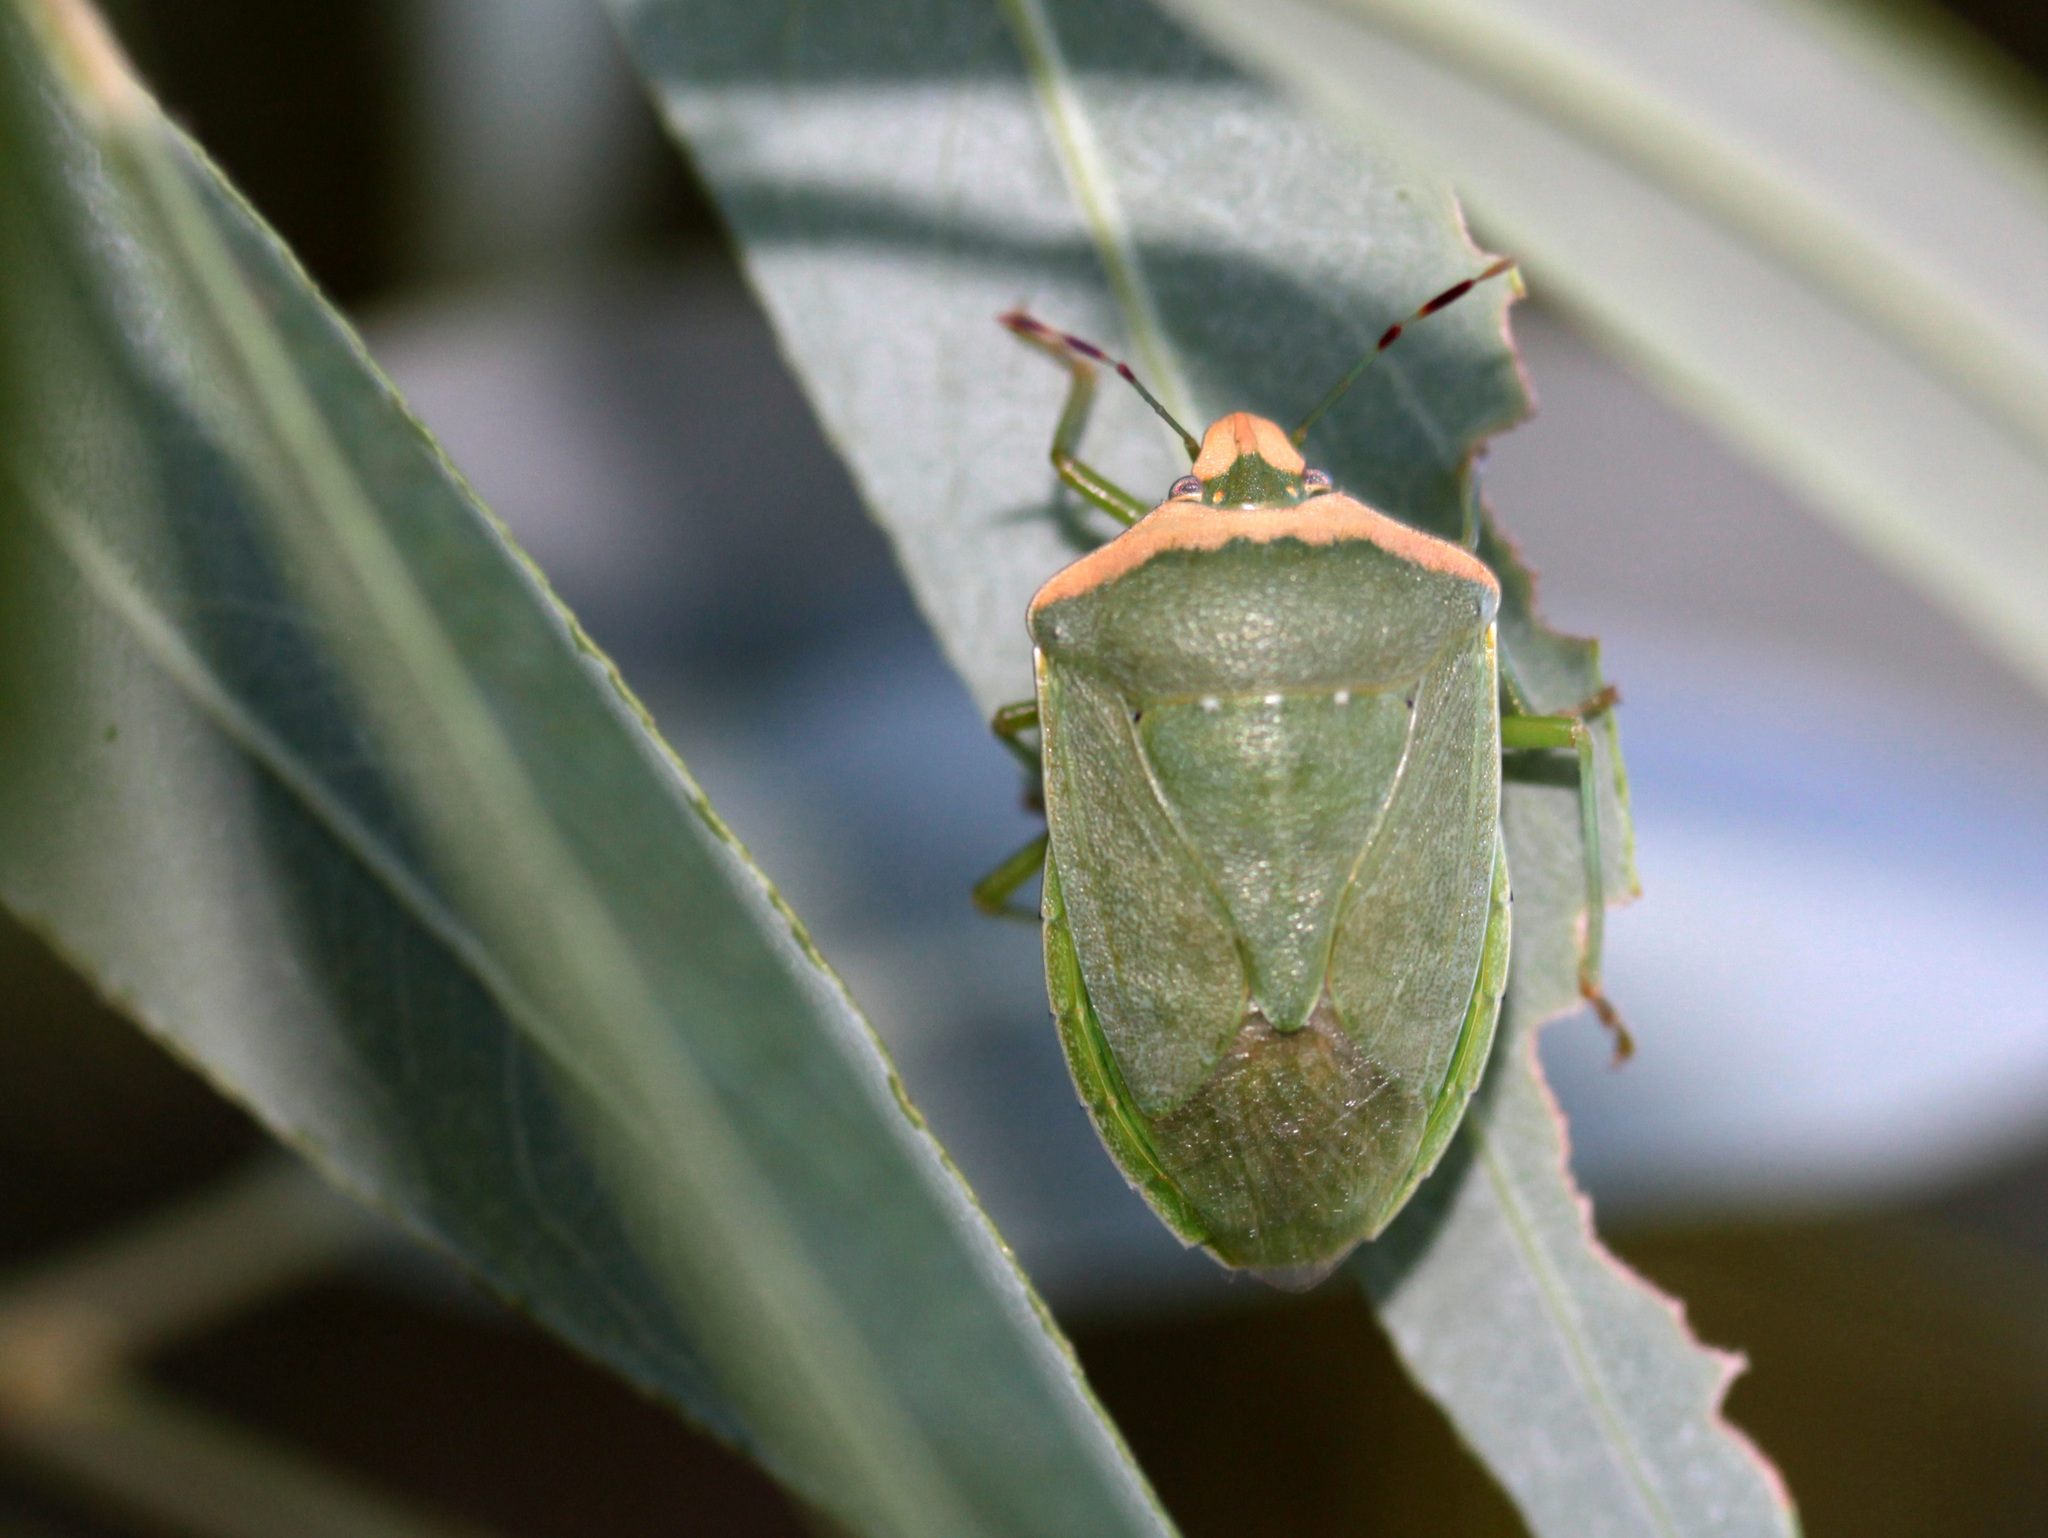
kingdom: Animalia
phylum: Arthropoda
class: Insecta
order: Hemiptera
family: Pentatomidae
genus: Nezara
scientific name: Nezara viridula
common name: Southern green stink bug
